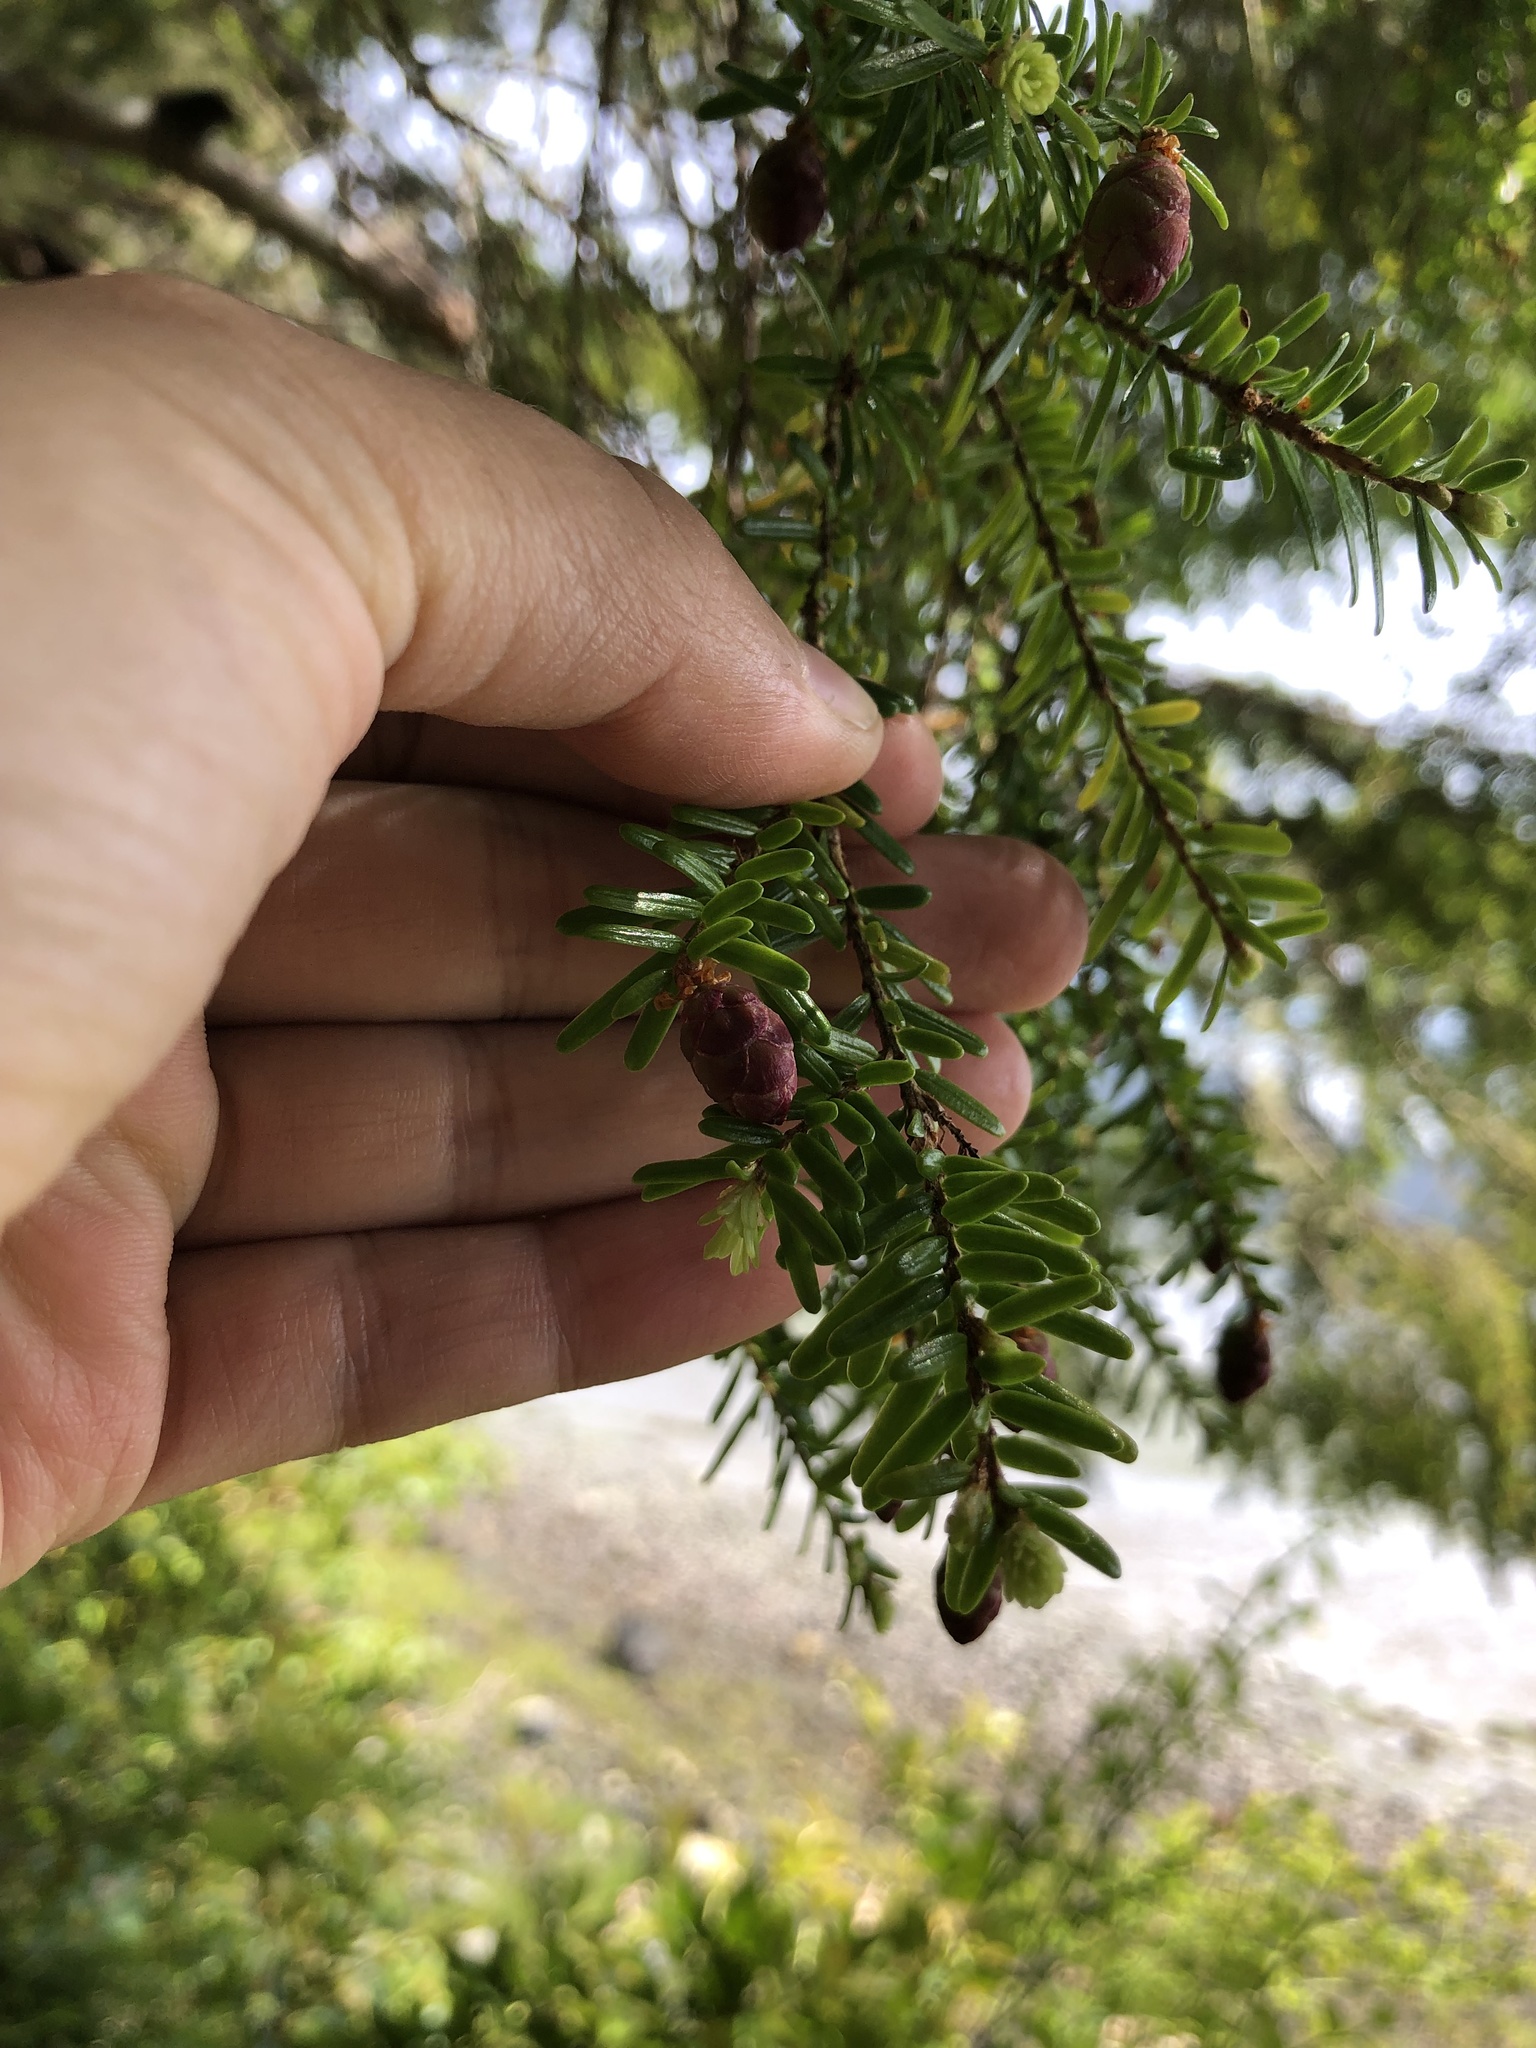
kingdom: Plantae
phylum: Tracheophyta
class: Pinopsida
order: Pinales
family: Pinaceae
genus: Tsuga
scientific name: Tsuga heterophylla
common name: Western hemlock
